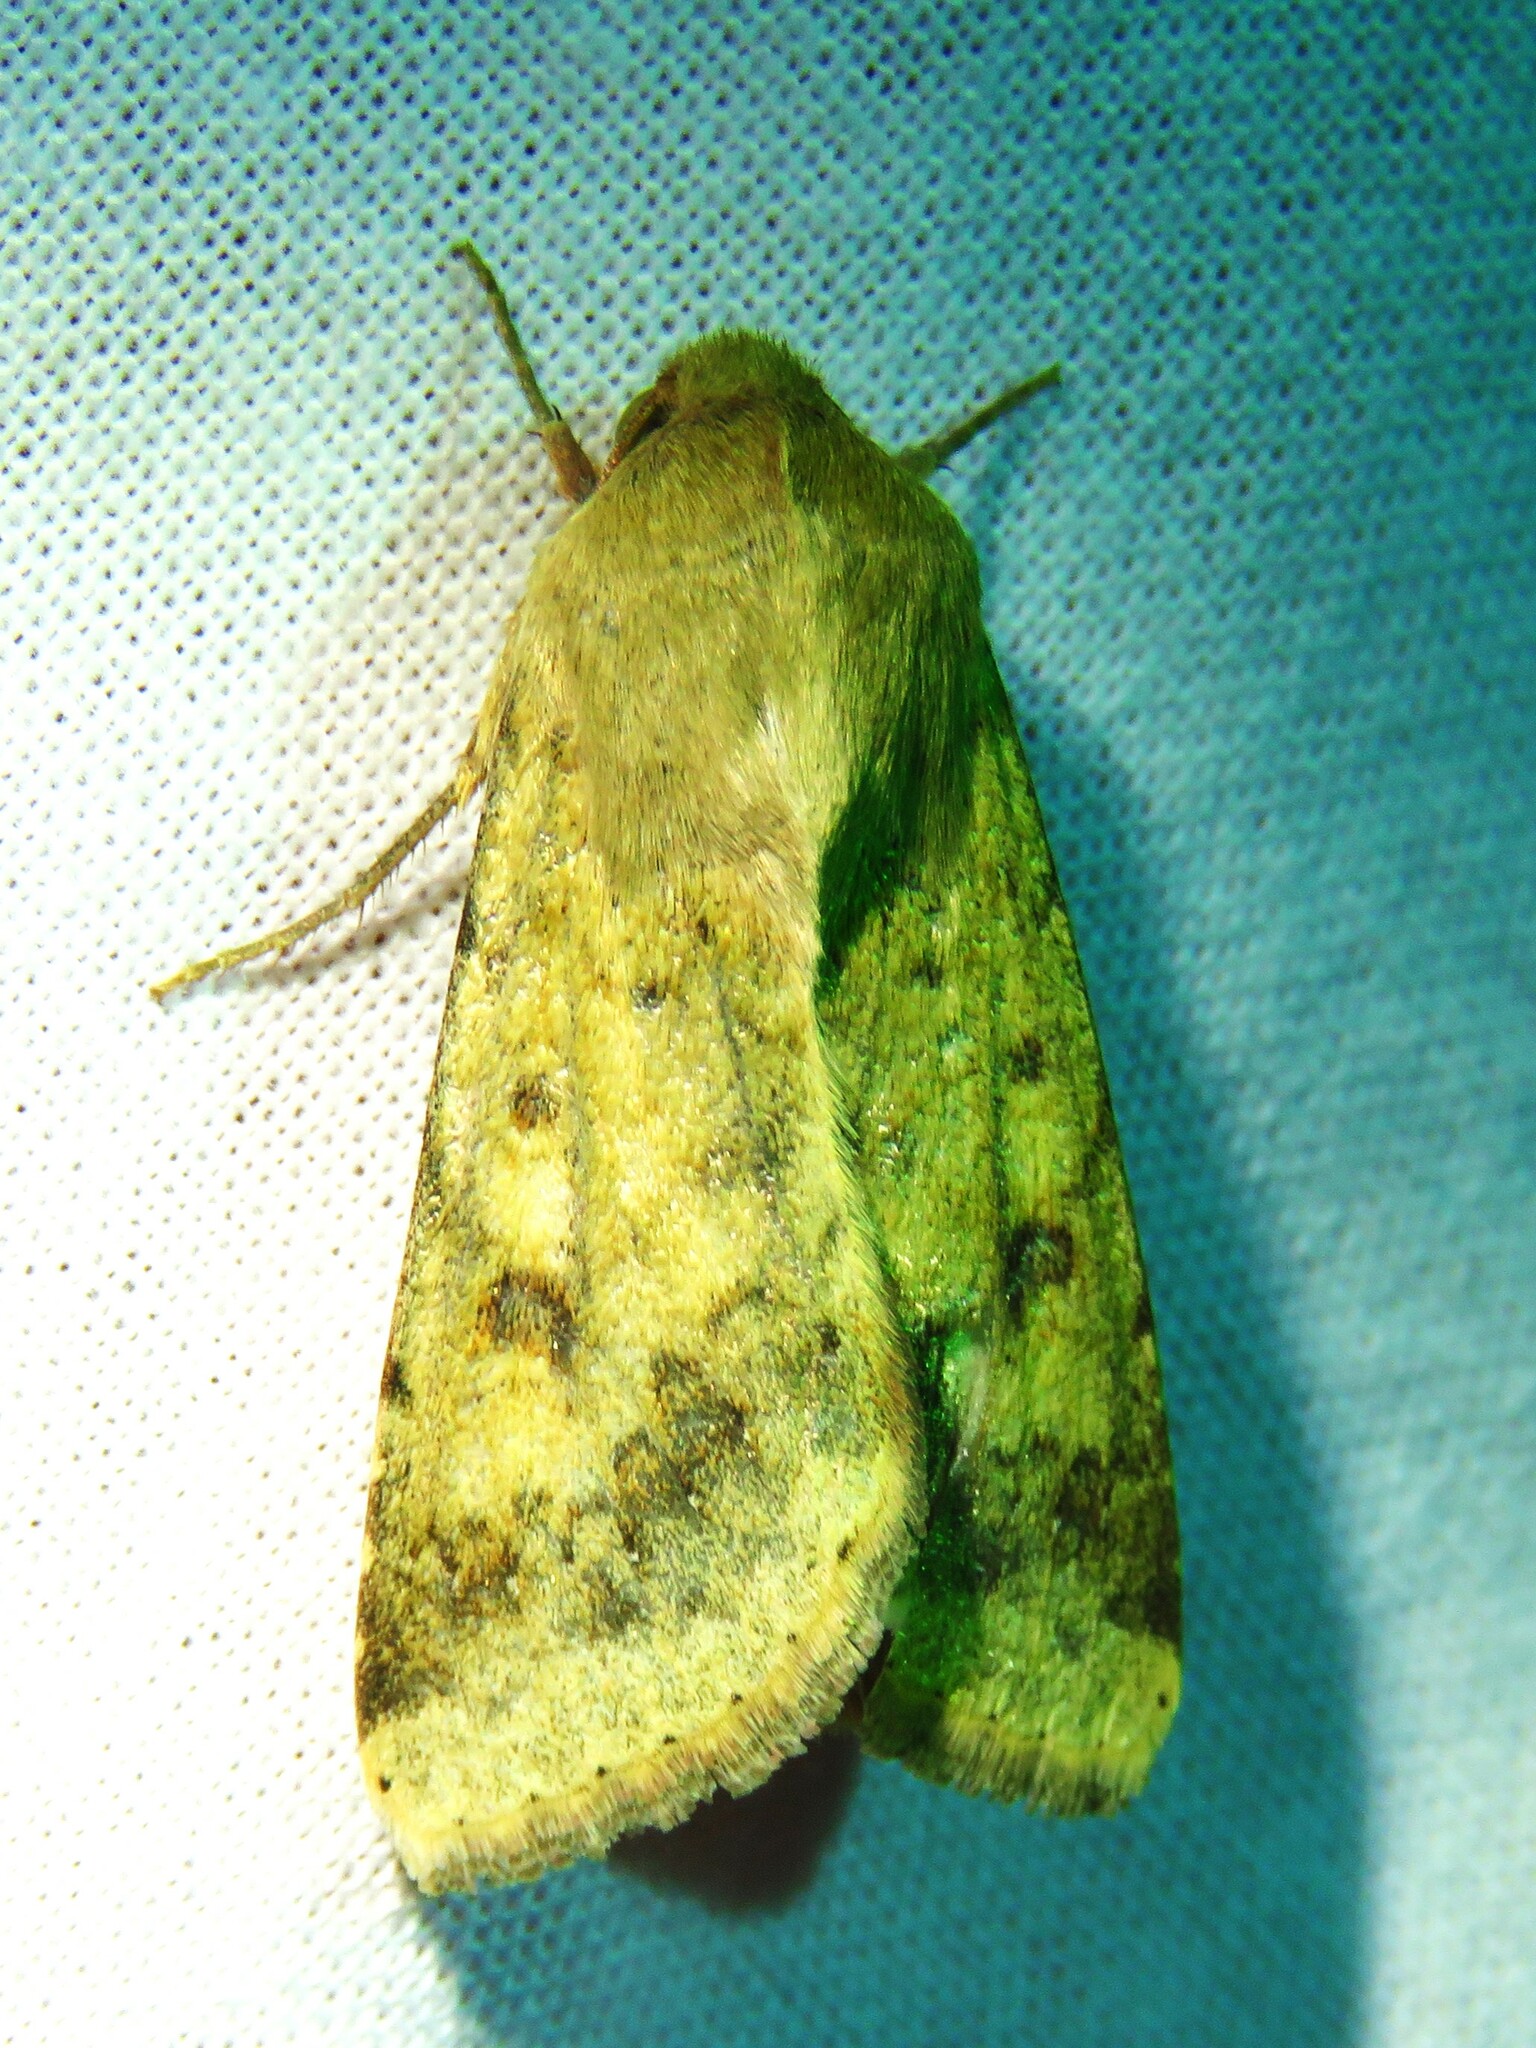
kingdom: Animalia
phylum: Arthropoda
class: Insecta
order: Lepidoptera
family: Noctuidae
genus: Helicoverpa
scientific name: Helicoverpa zea
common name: Bollworm
